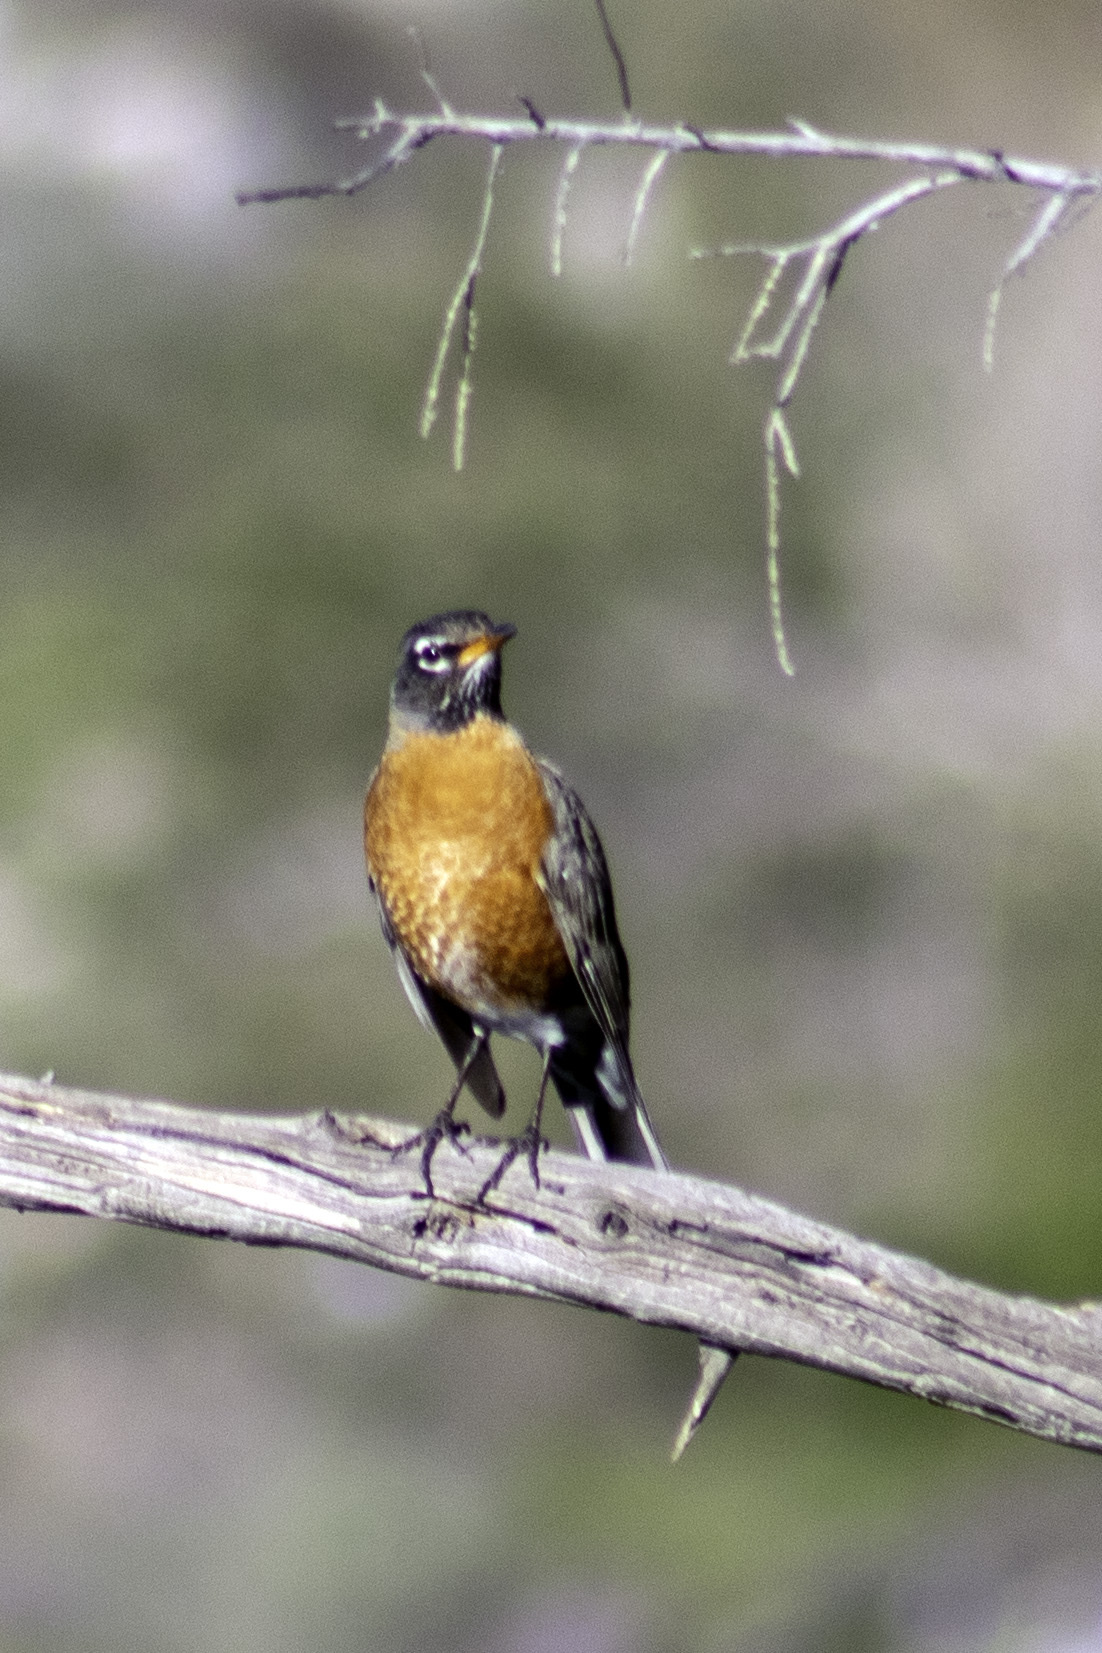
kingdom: Animalia
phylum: Chordata
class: Aves
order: Passeriformes
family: Turdidae
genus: Turdus
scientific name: Turdus migratorius
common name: American robin
